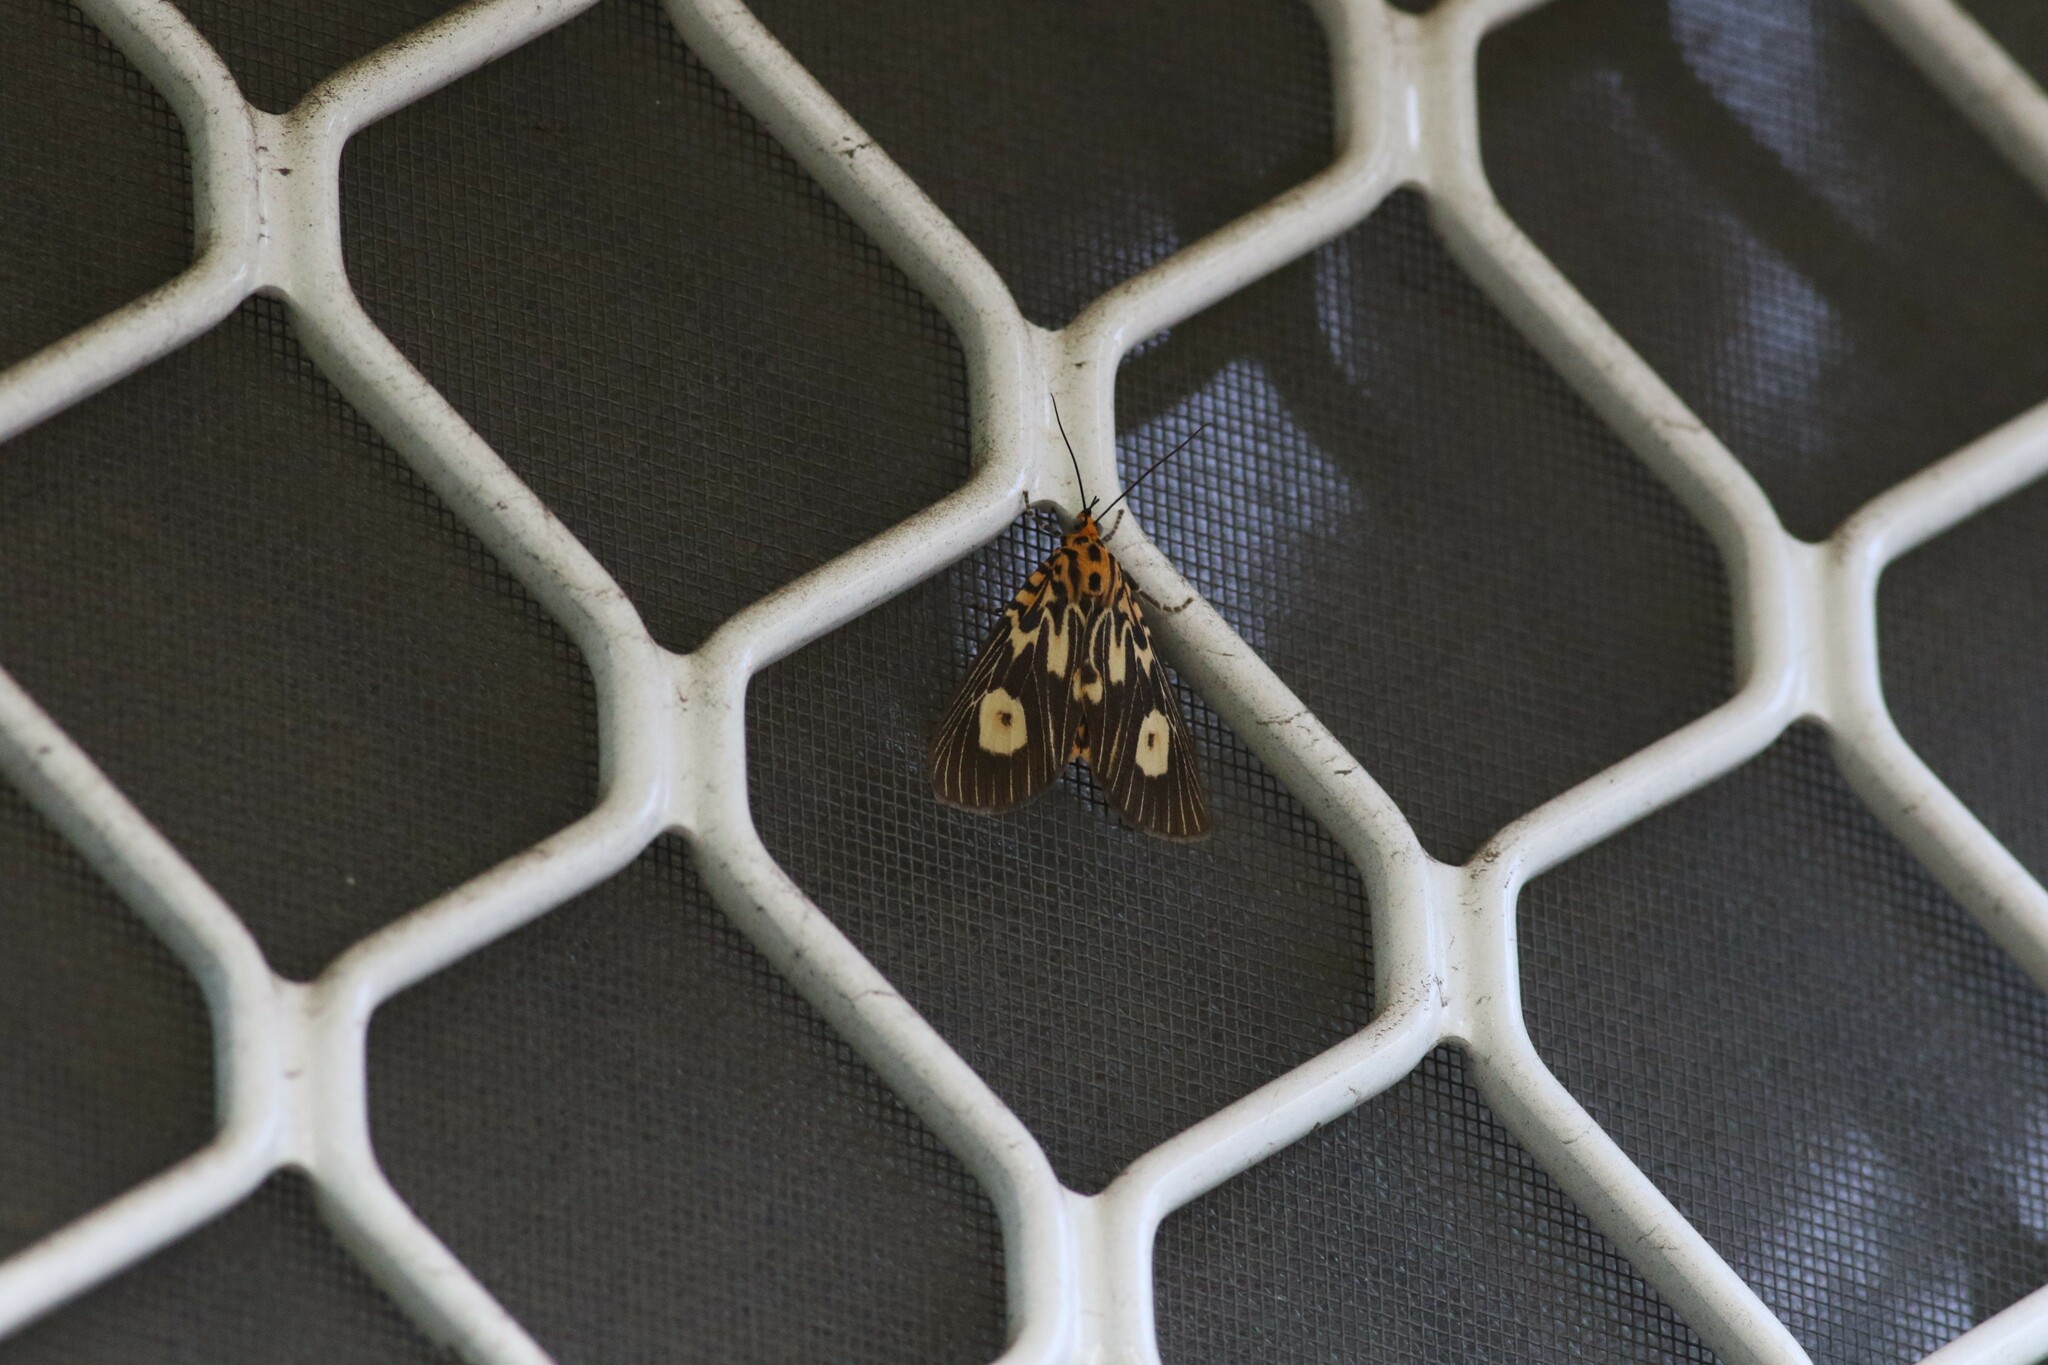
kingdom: Animalia
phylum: Arthropoda
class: Insecta
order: Lepidoptera
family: Erebidae
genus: Asota
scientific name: Asota plagiata
